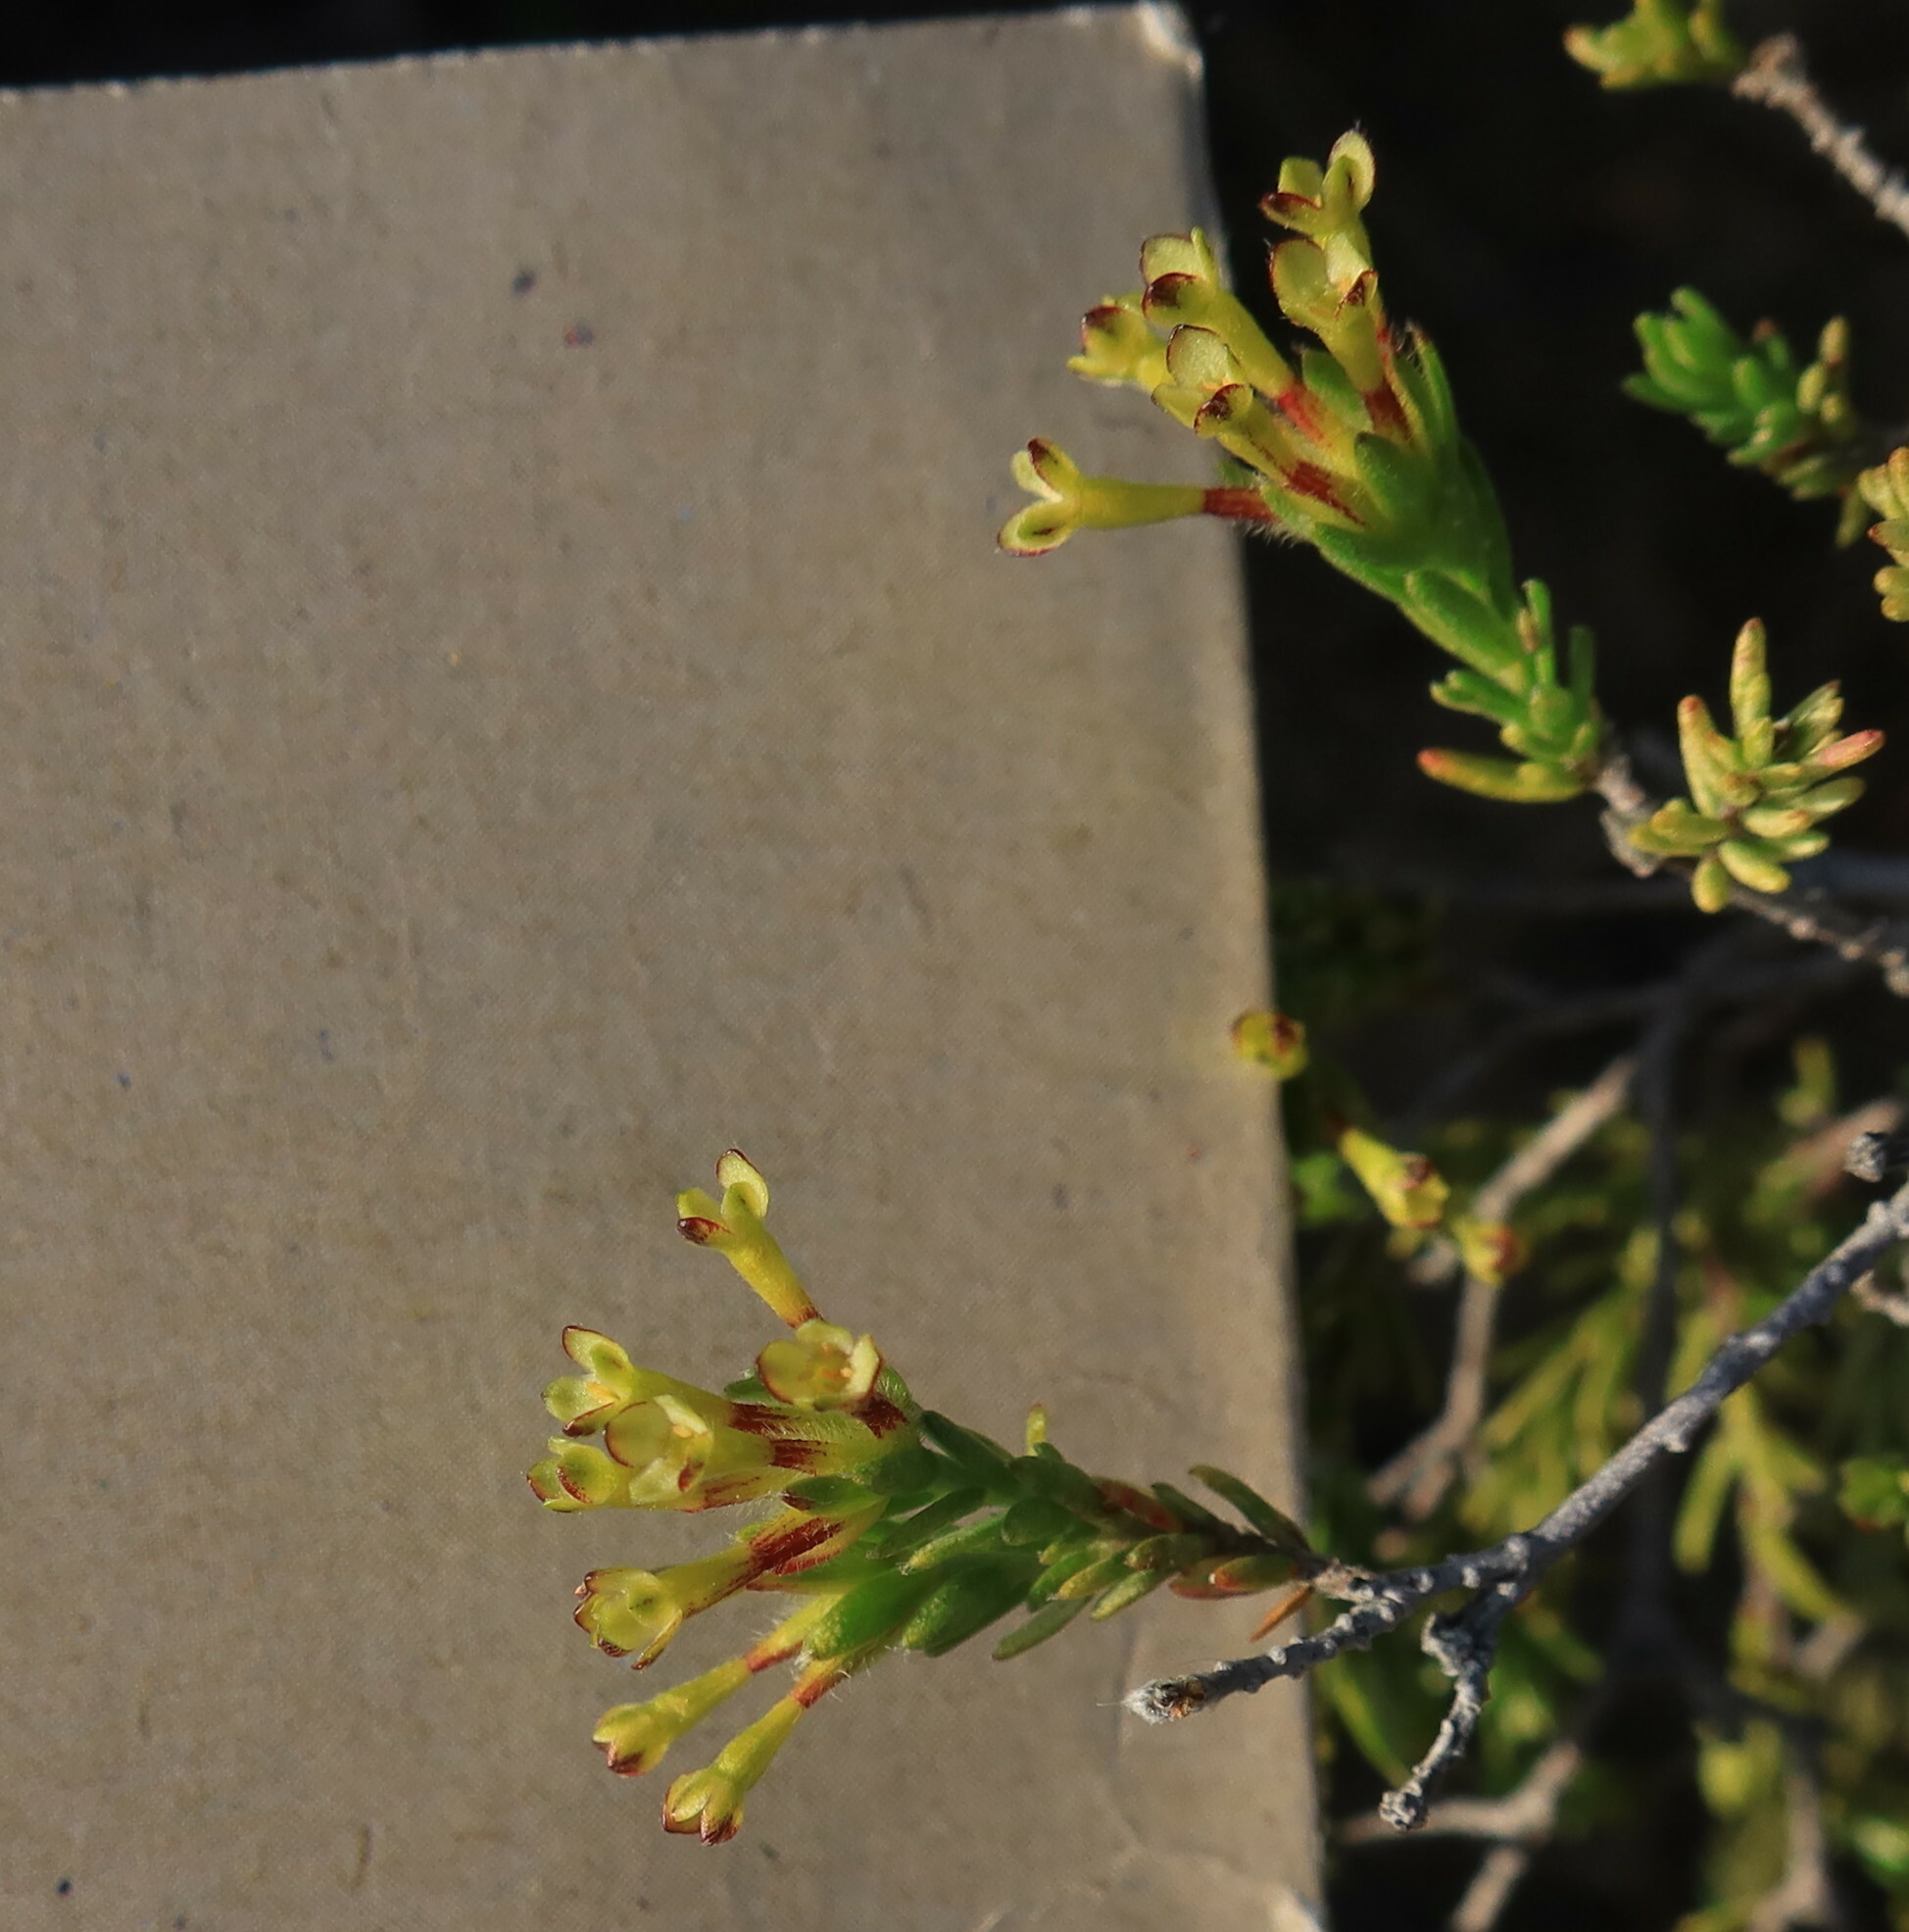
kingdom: Plantae
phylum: Tracheophyta
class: Magnoliopsida
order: Malvales
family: Thymelaeaceae
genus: Gnidia
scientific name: Gnidia laxa
